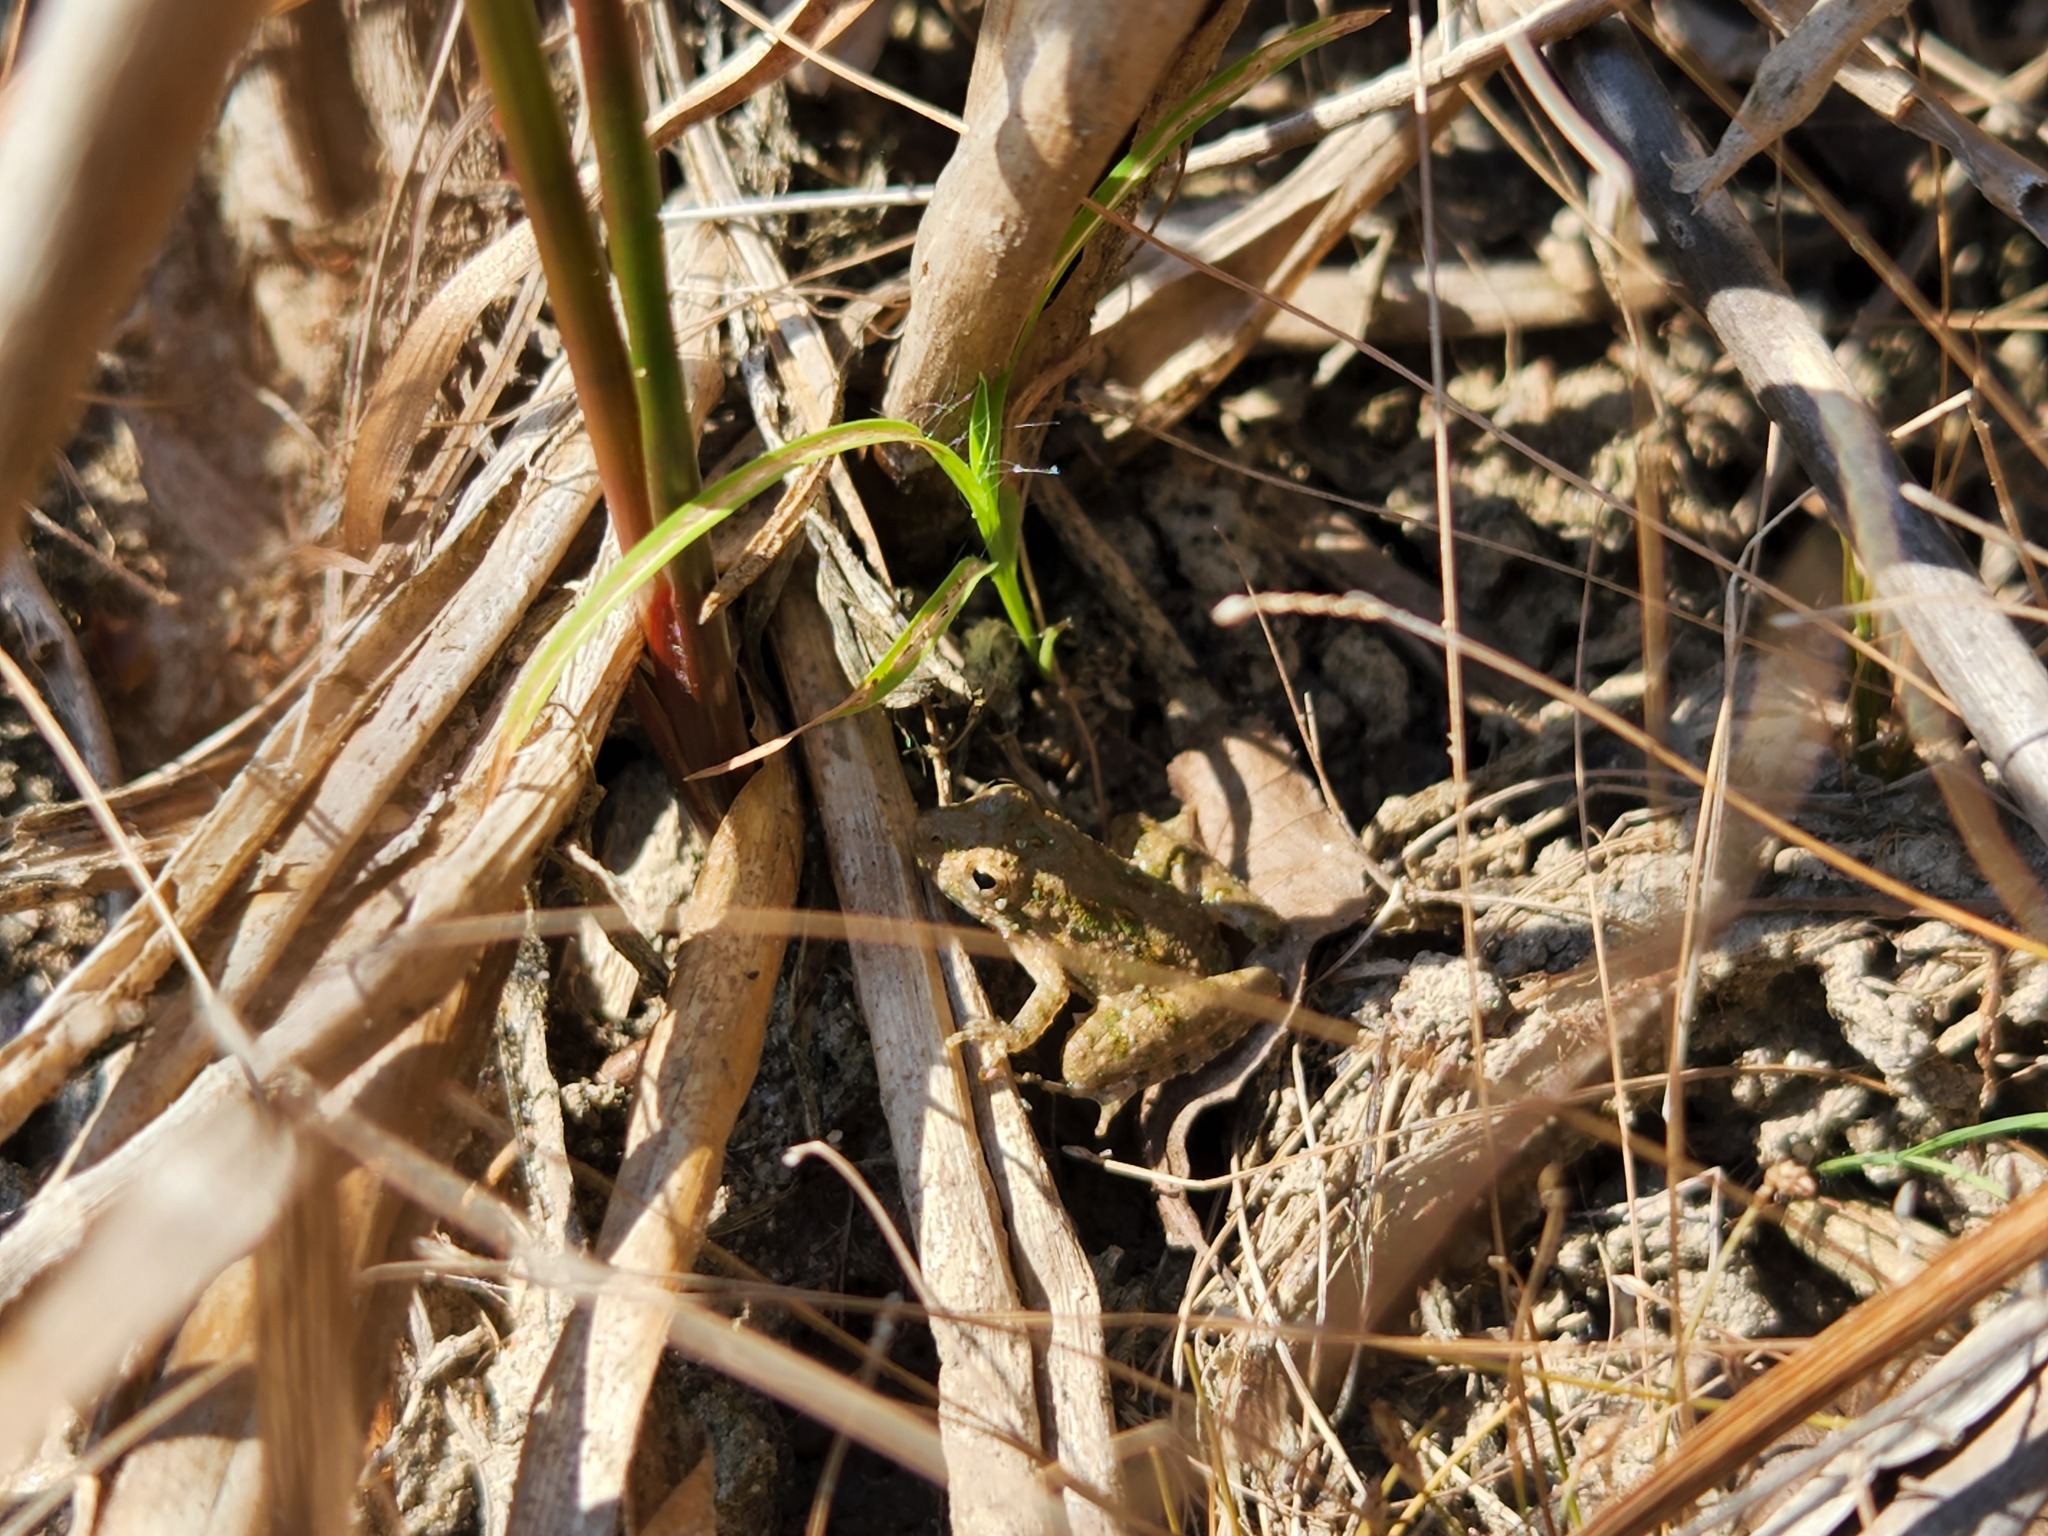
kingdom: Animalia
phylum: Chordata
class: Amphibia
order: Anura
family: Hylidae
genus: Acris
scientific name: Acris blanchardi
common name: Blanchard's cricket frog
